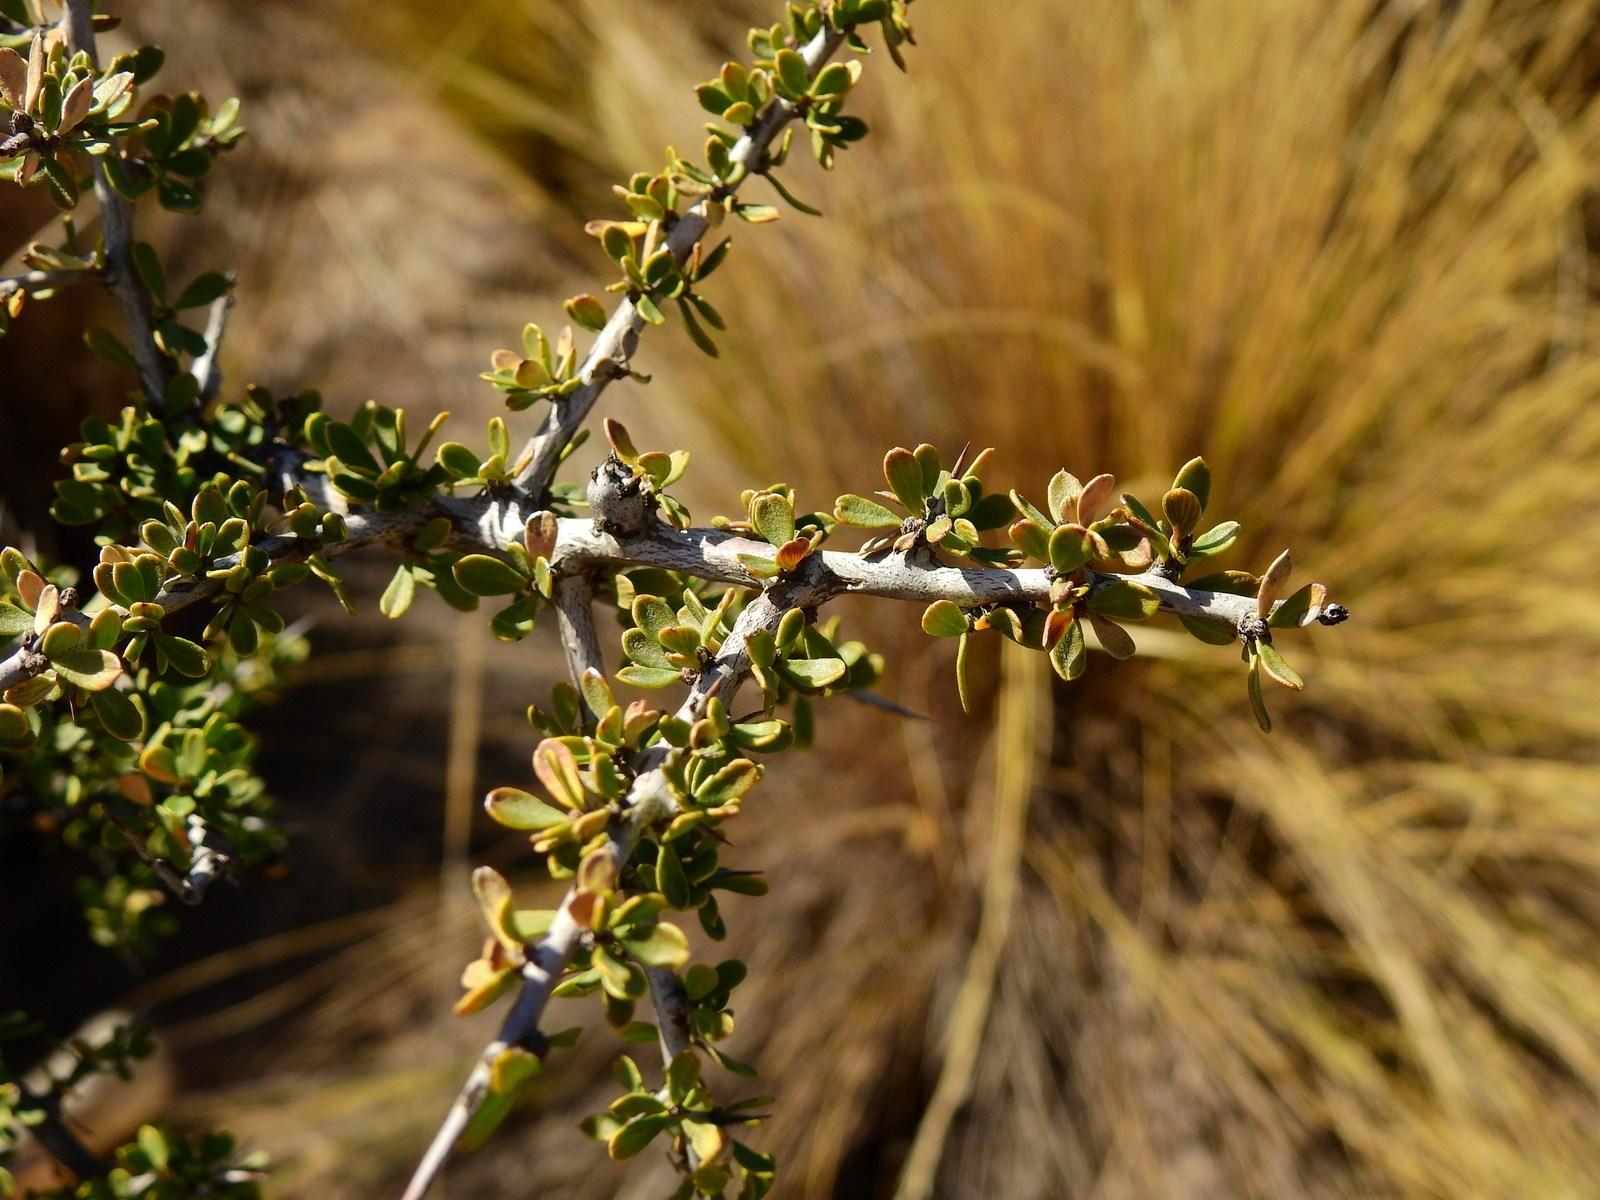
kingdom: Plantae
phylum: Tracheophyta
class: Magnoliopsida
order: Rosales
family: Rhamnaceae
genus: Condalia
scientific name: Condalia microphylla
